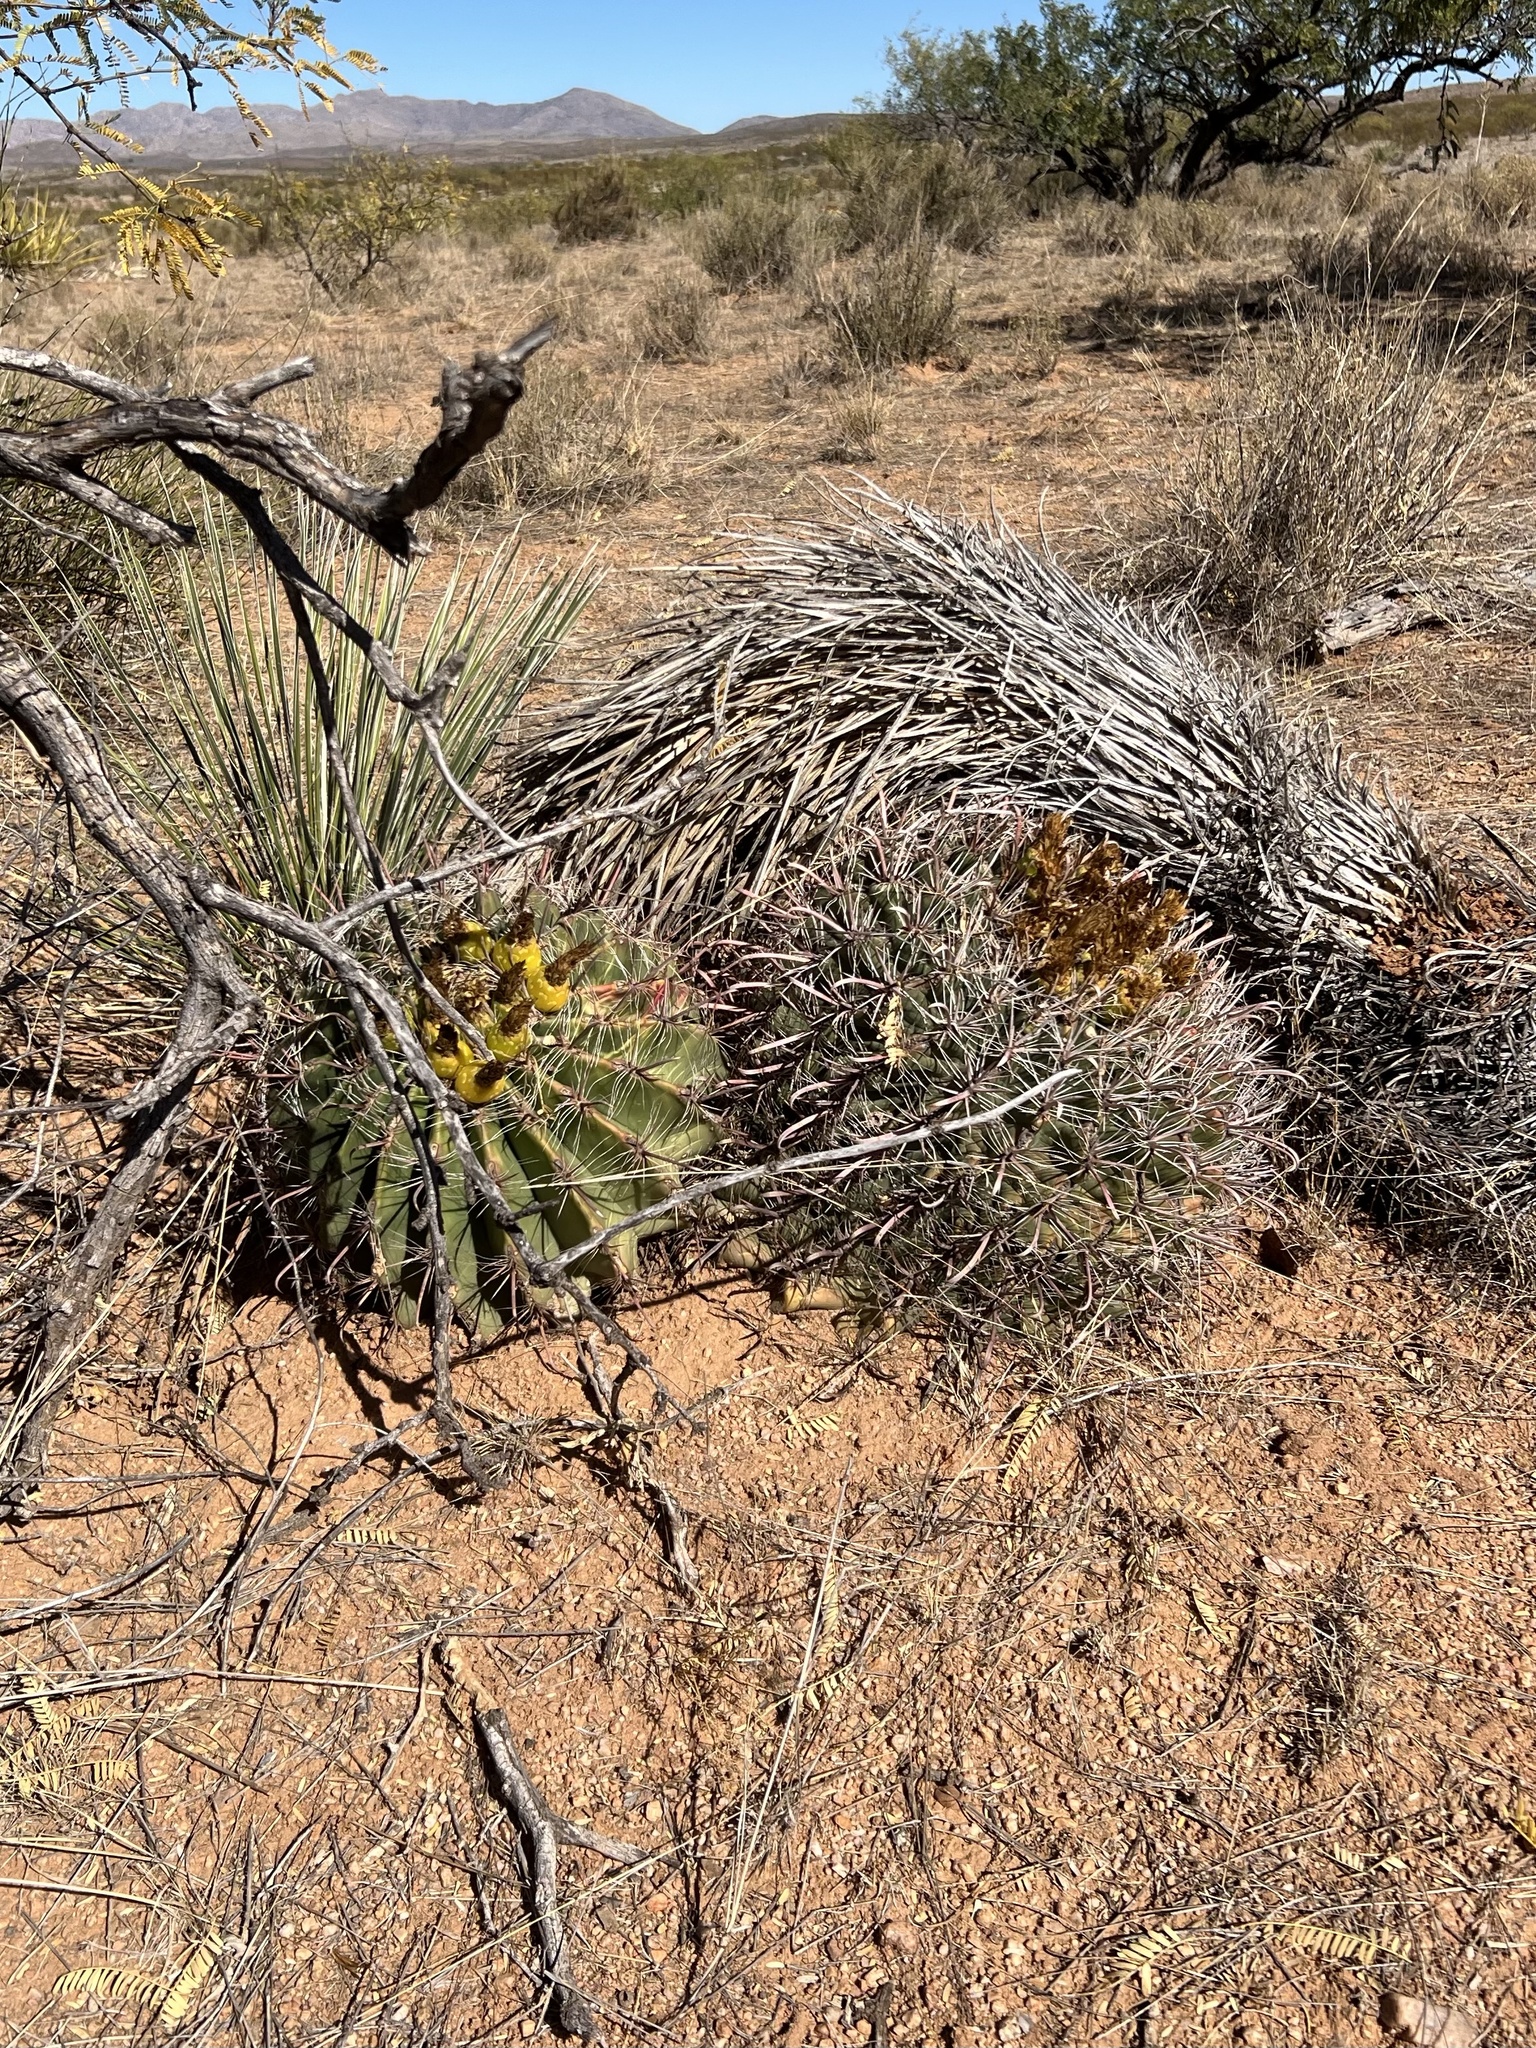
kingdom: Plantae
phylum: Tracheophyta
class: Magnoliopsida
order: Caryophyllales
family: Cactaceae
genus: Ferocactus
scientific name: Ferocactus wislizeni
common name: Candy barrel cactus
